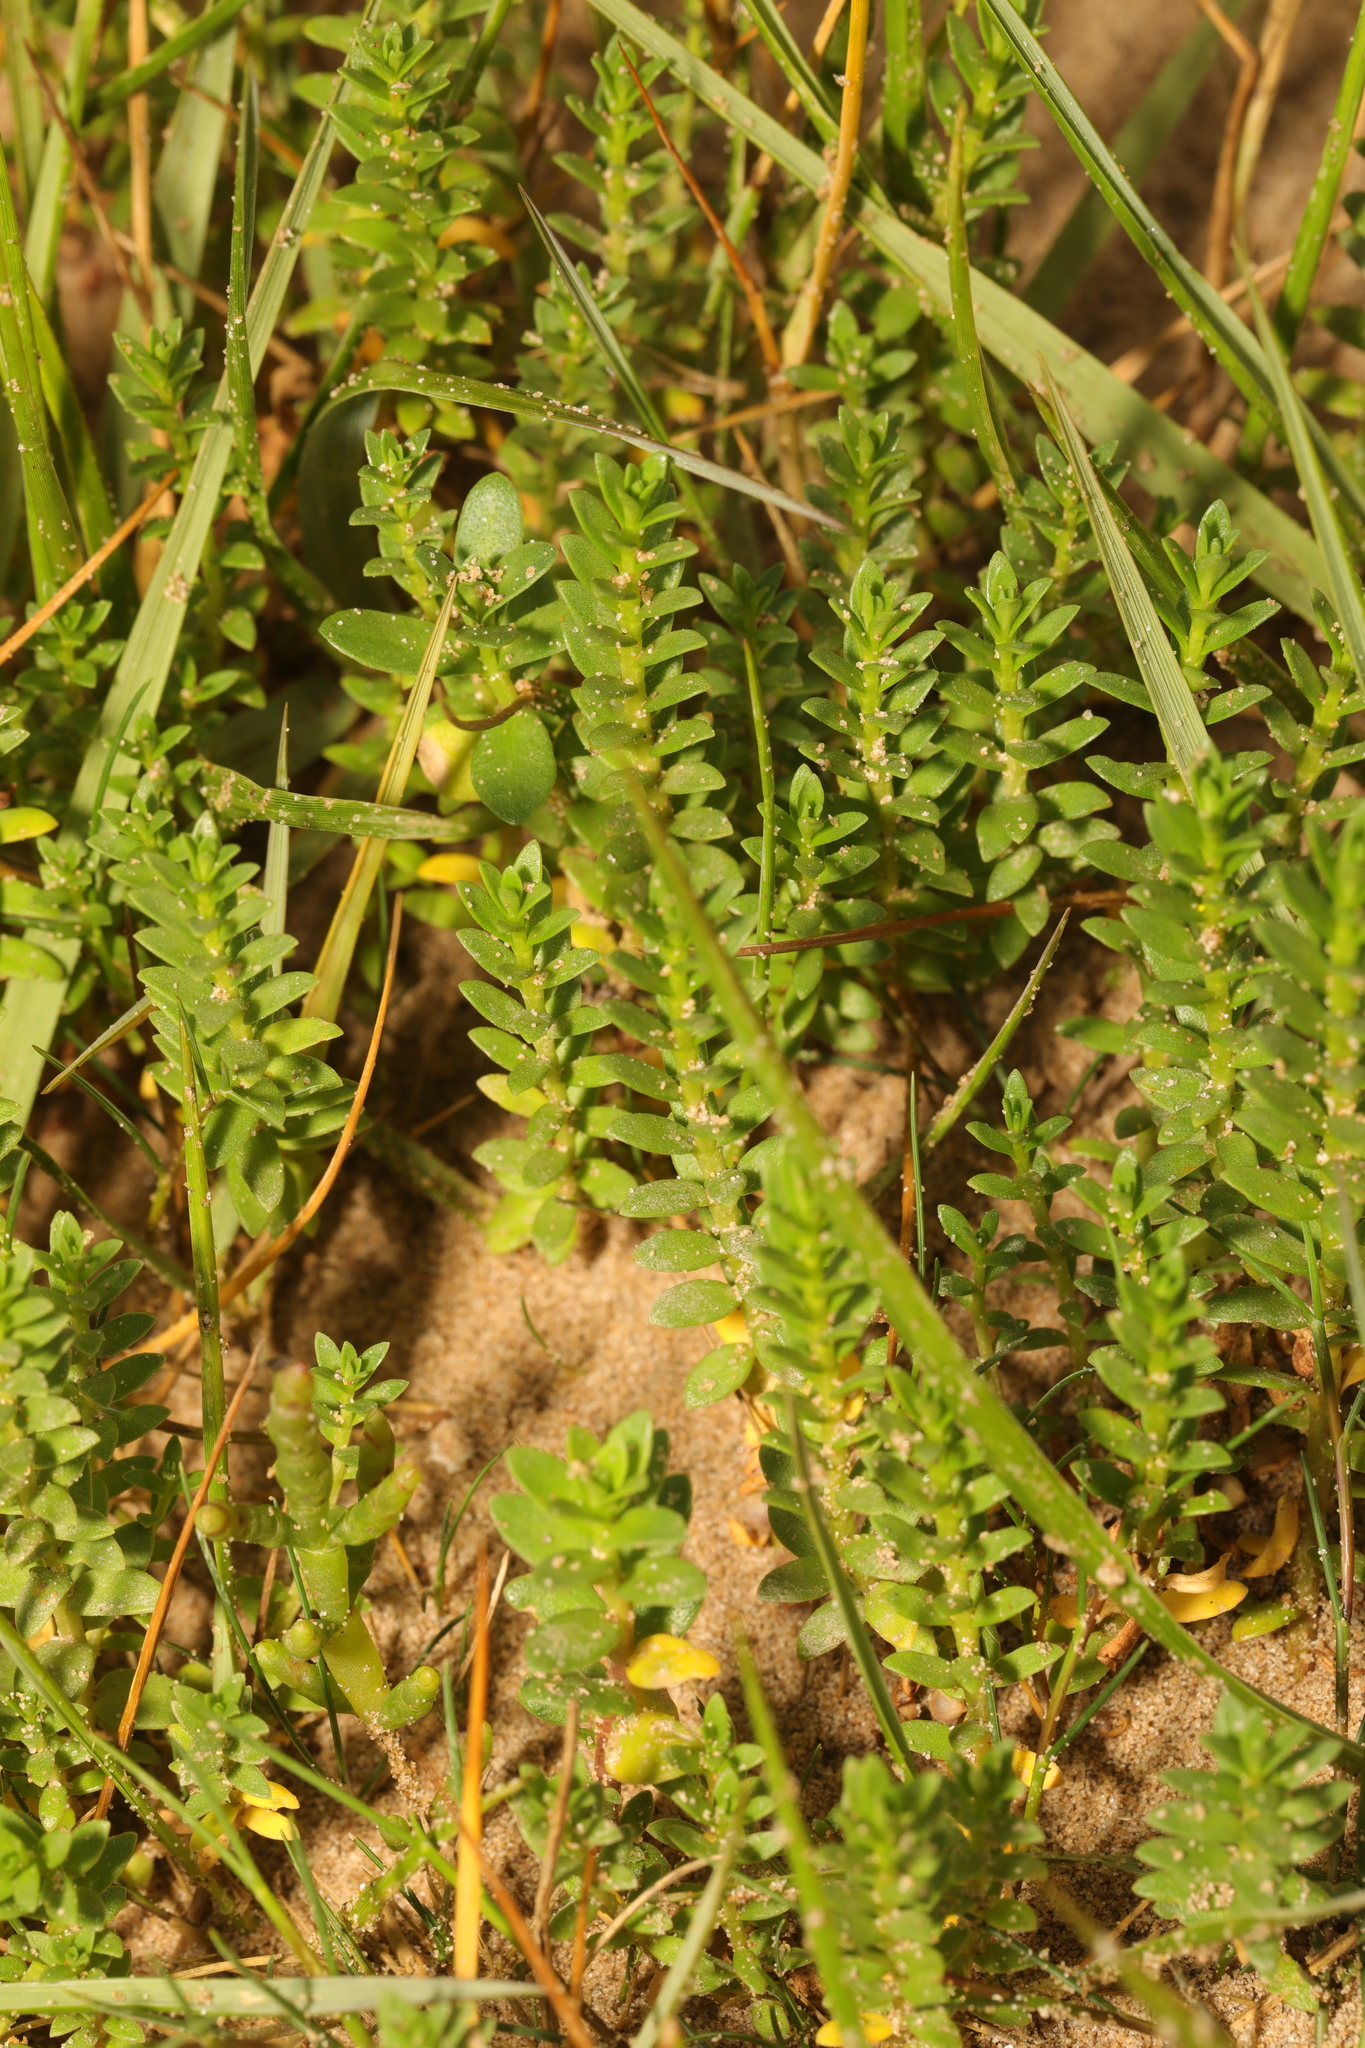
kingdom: Plantae
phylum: Tracheophyta
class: Magnoliopsida
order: Ericales
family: Primulaceae
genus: Lysimachia
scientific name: Lysimachia maritima
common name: Sea milkwort
